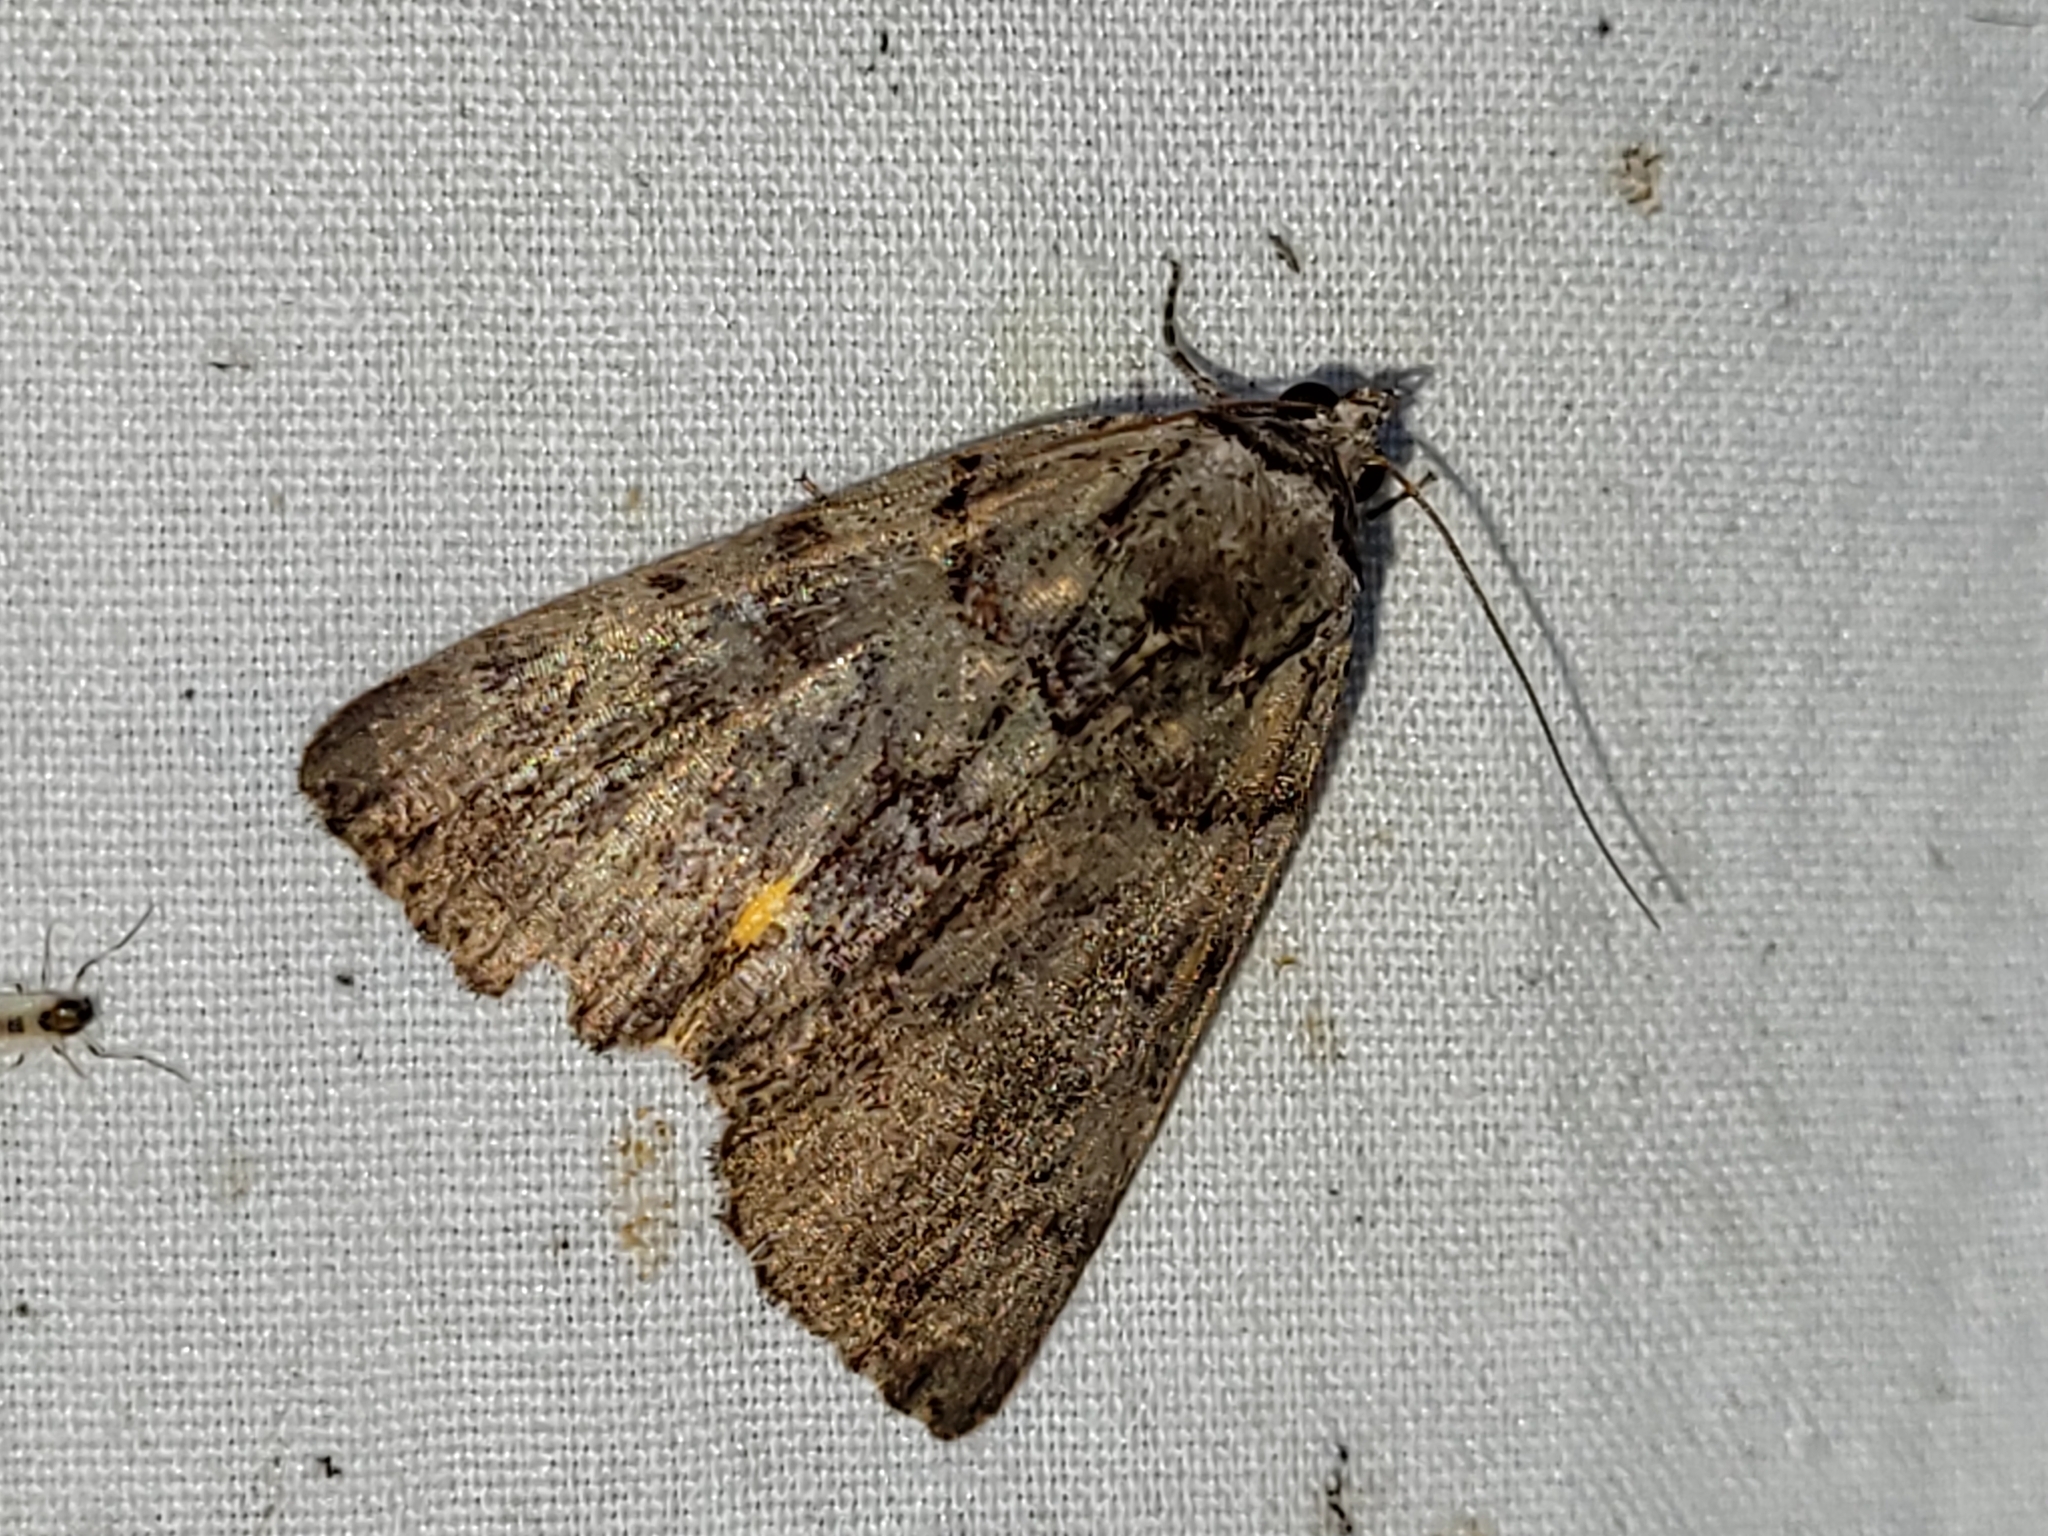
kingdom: Animalia
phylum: Arthropoda
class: Insecta
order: Lepidoptera
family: Erebidae
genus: Catocala
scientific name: Catocala alabamae
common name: Alabama underwing
